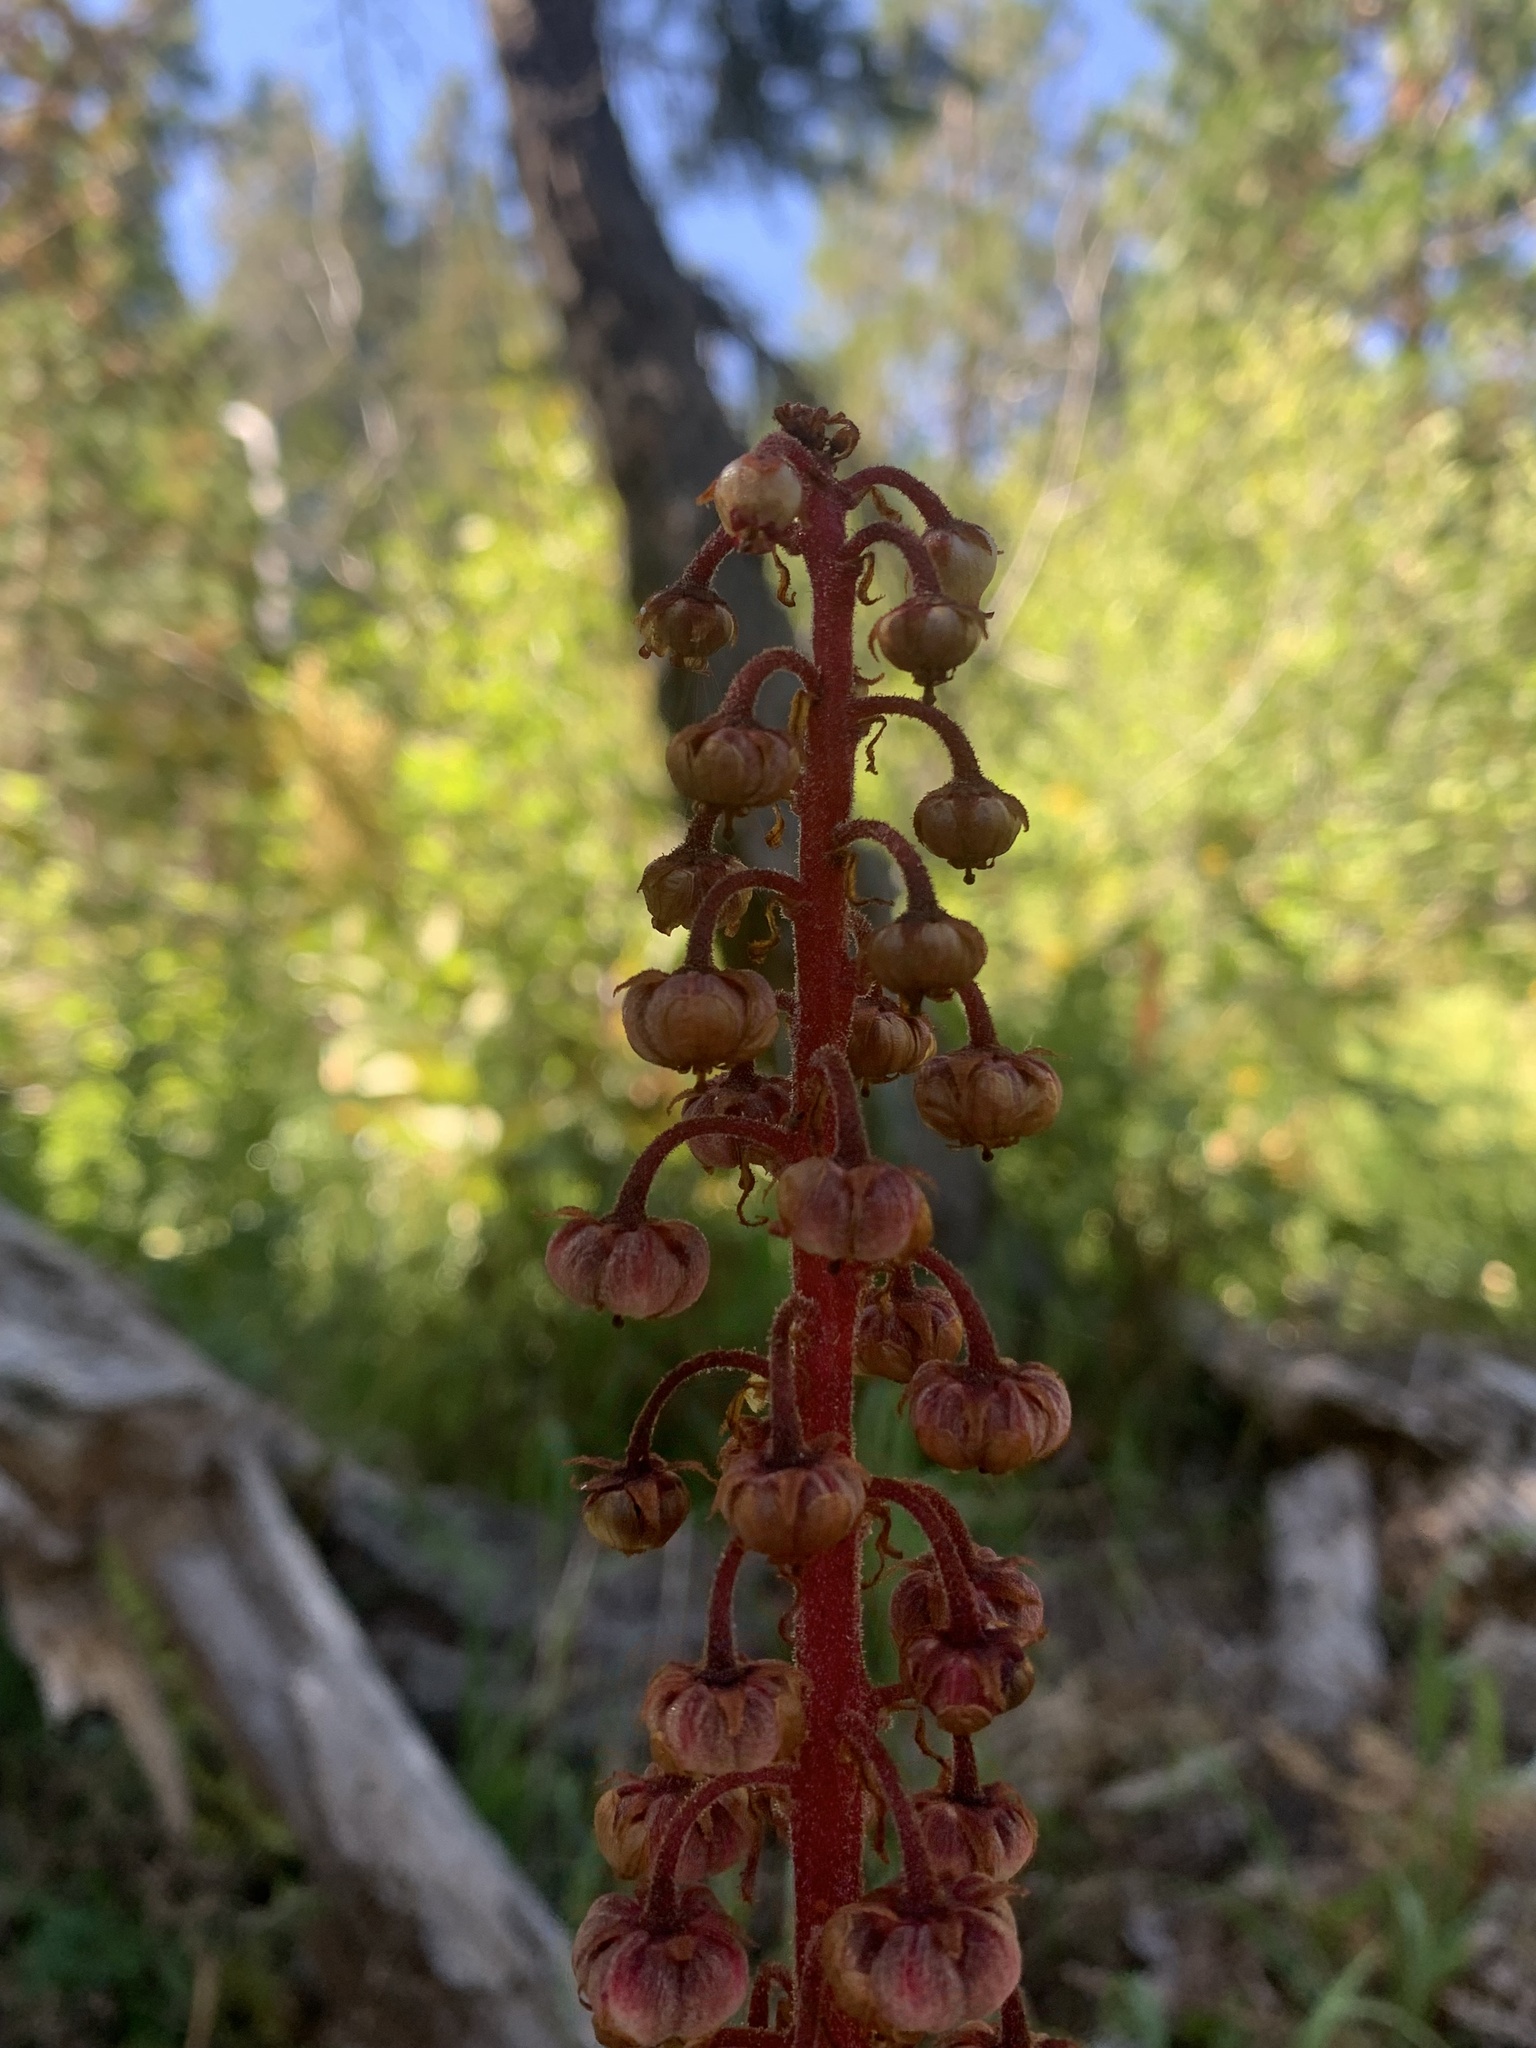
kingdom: Plantae
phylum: Tracheophyta
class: Magnoliopsida
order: Ericales
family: Ericaceae
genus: Pterospora
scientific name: Pterospora andromedea
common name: Giant bird's-nest
